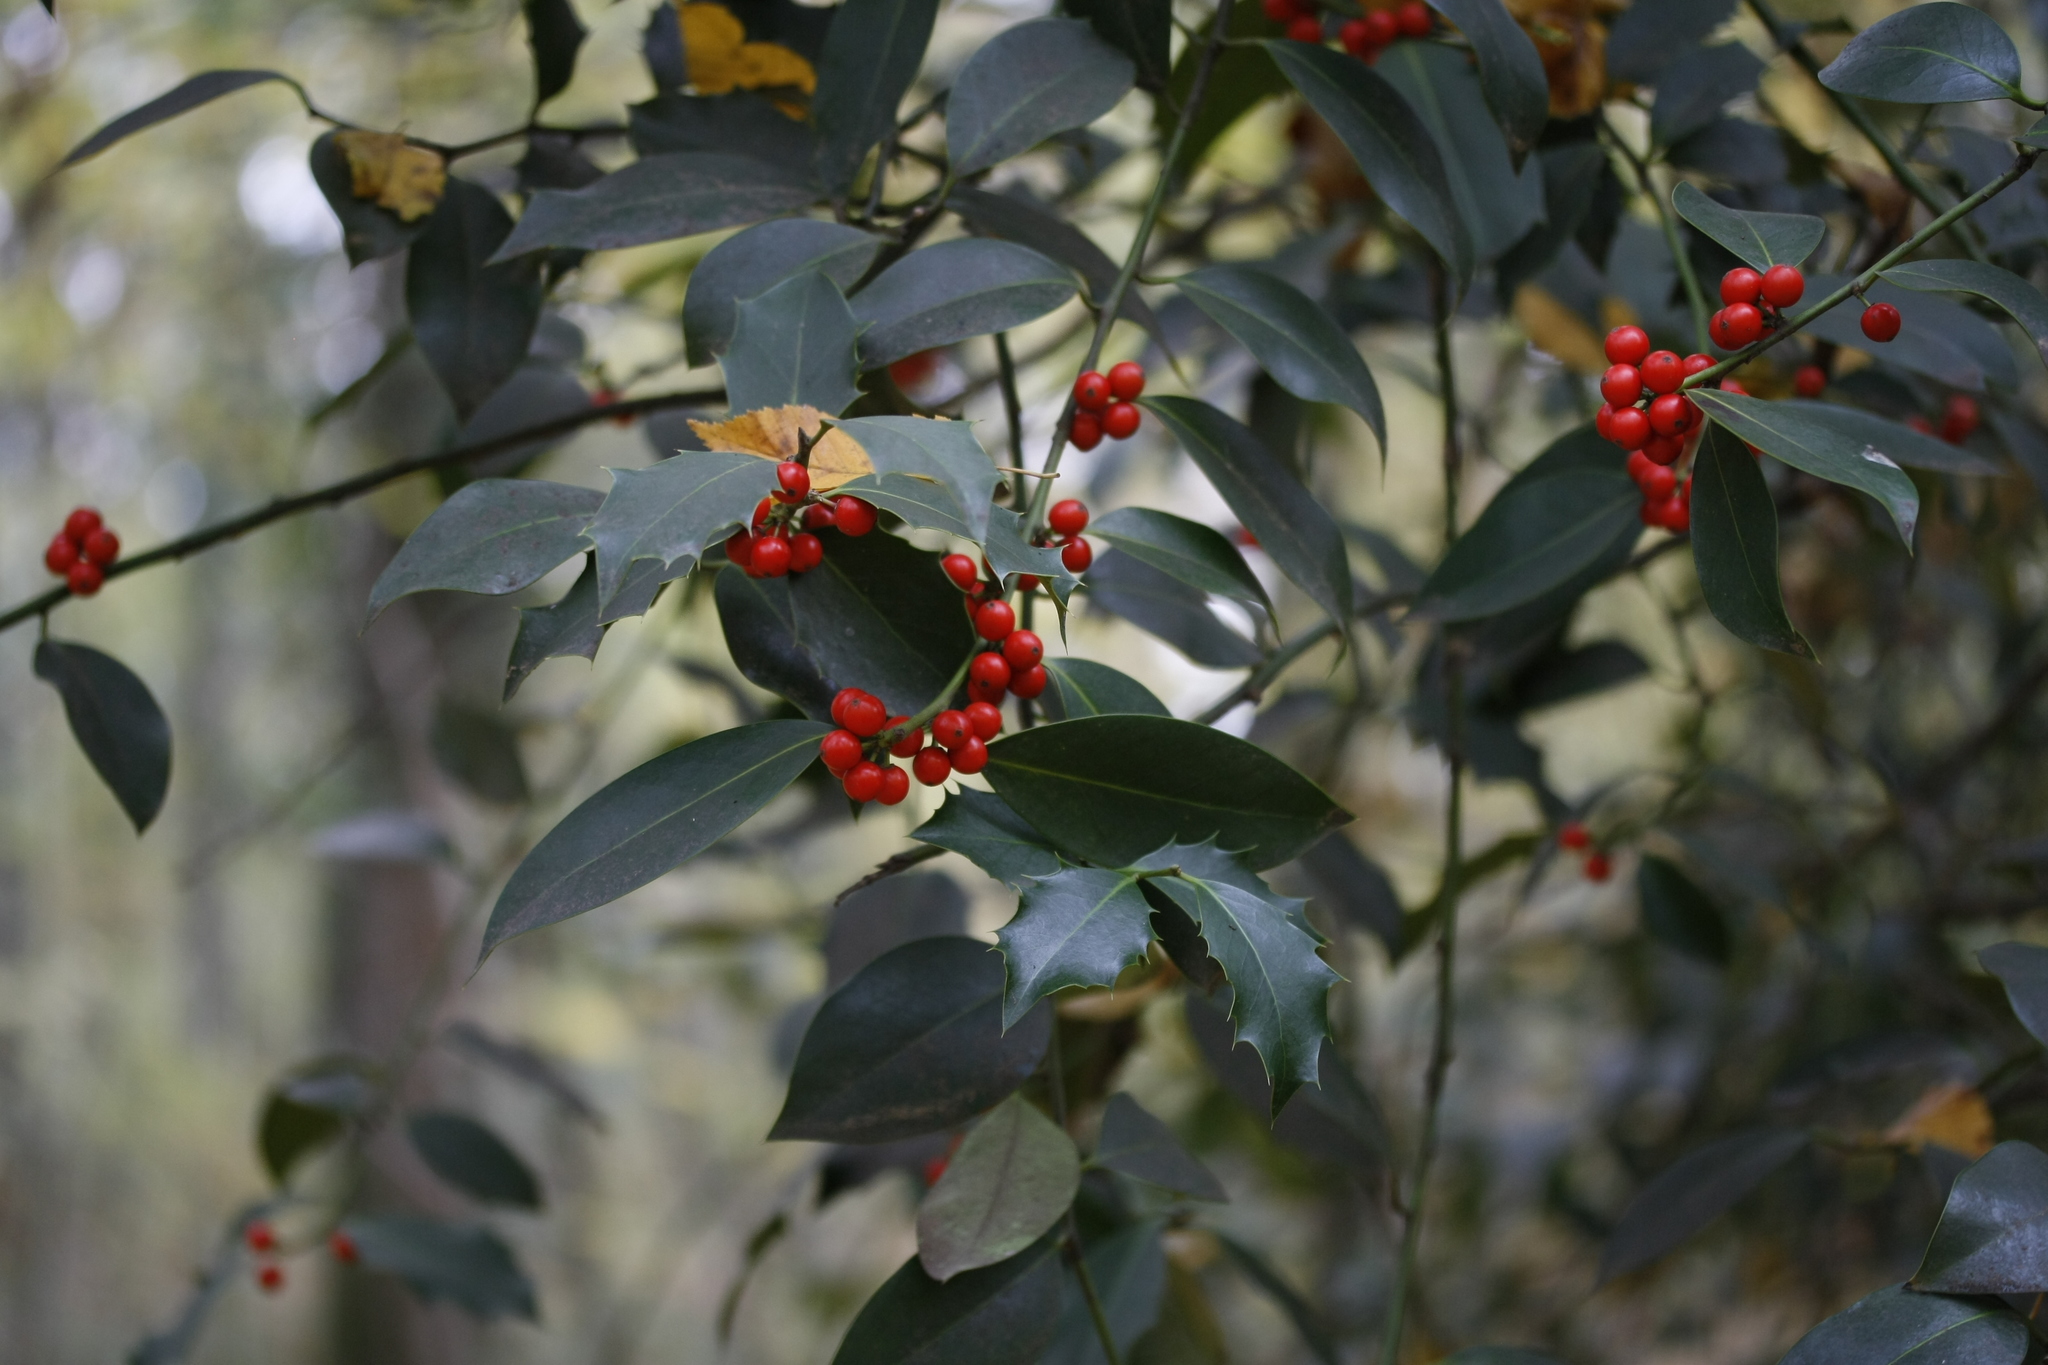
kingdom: Plantae
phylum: Tracheophyta
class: Magnoliopsida
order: Aquifoliales
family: Aquifoliaceae
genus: Ilex
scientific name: Ilex aquifolium
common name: English holly
